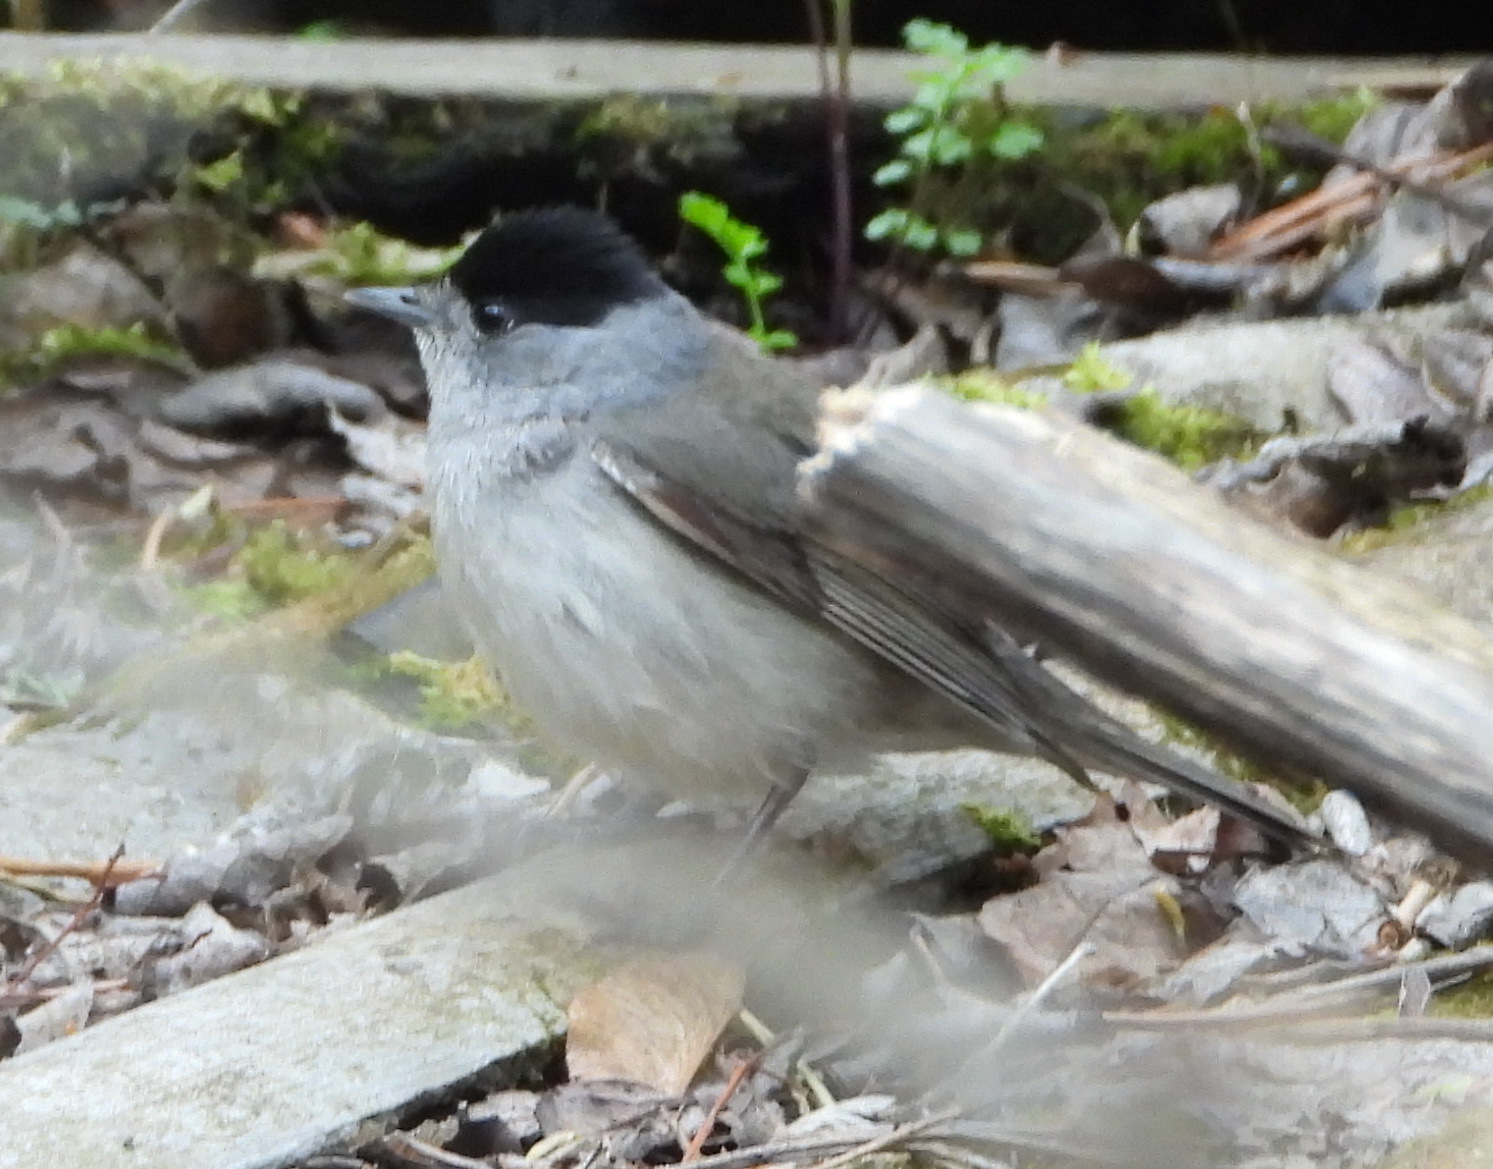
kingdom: Animalia
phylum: Chordata
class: Aves
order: Passeriformes
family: Sylviidae
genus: Sylvia
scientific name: Sylvia atricapilla
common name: Eurasian blackcap
